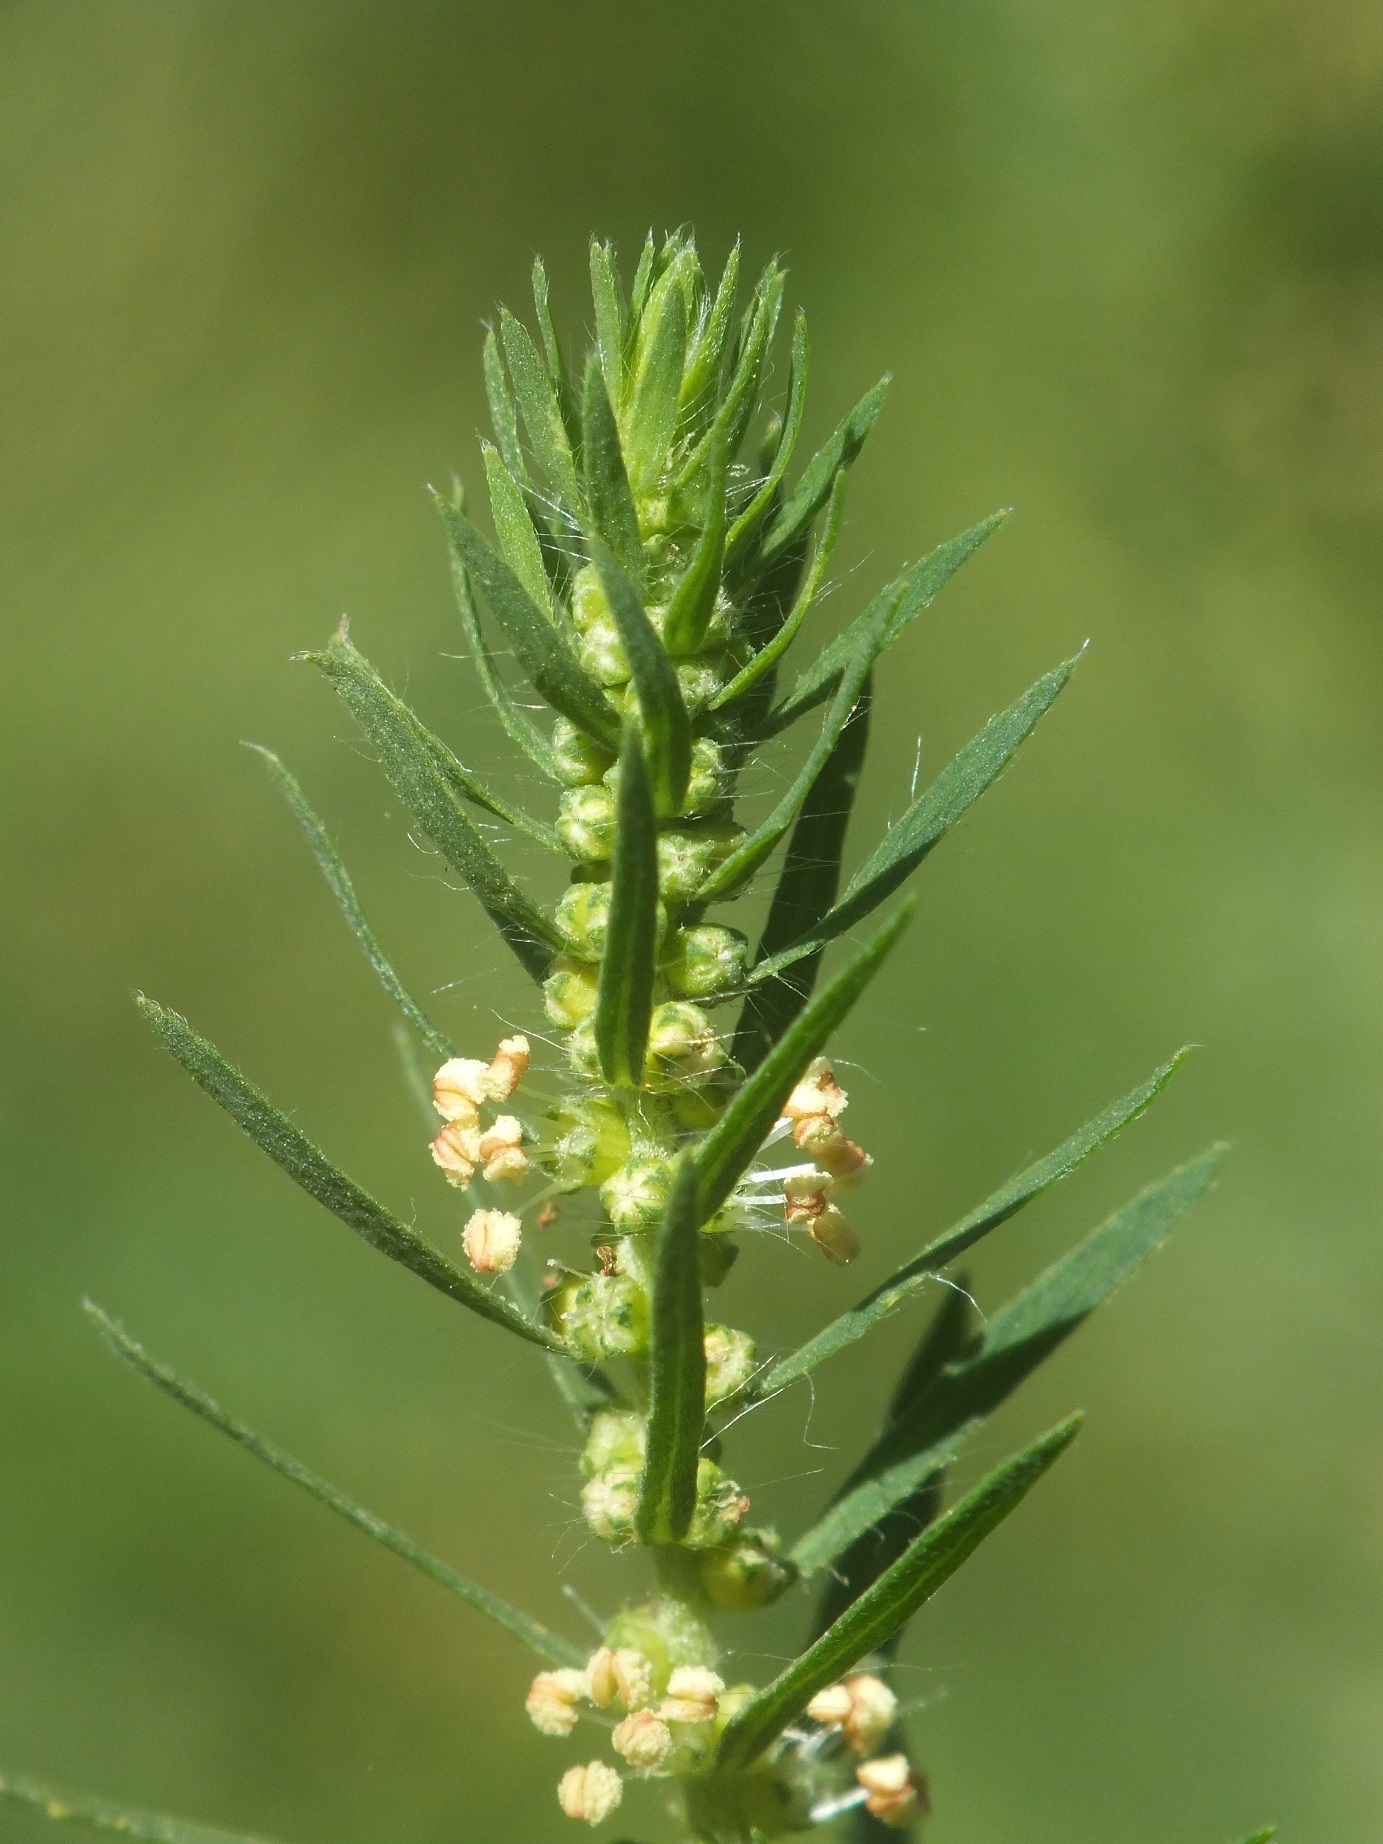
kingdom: Plantae
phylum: Tracheophyta
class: Magnoliopsida
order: Caryophyllales
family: Amaranthaceae
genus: Bassia
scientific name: Bassia scoparia
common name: Belvedere
